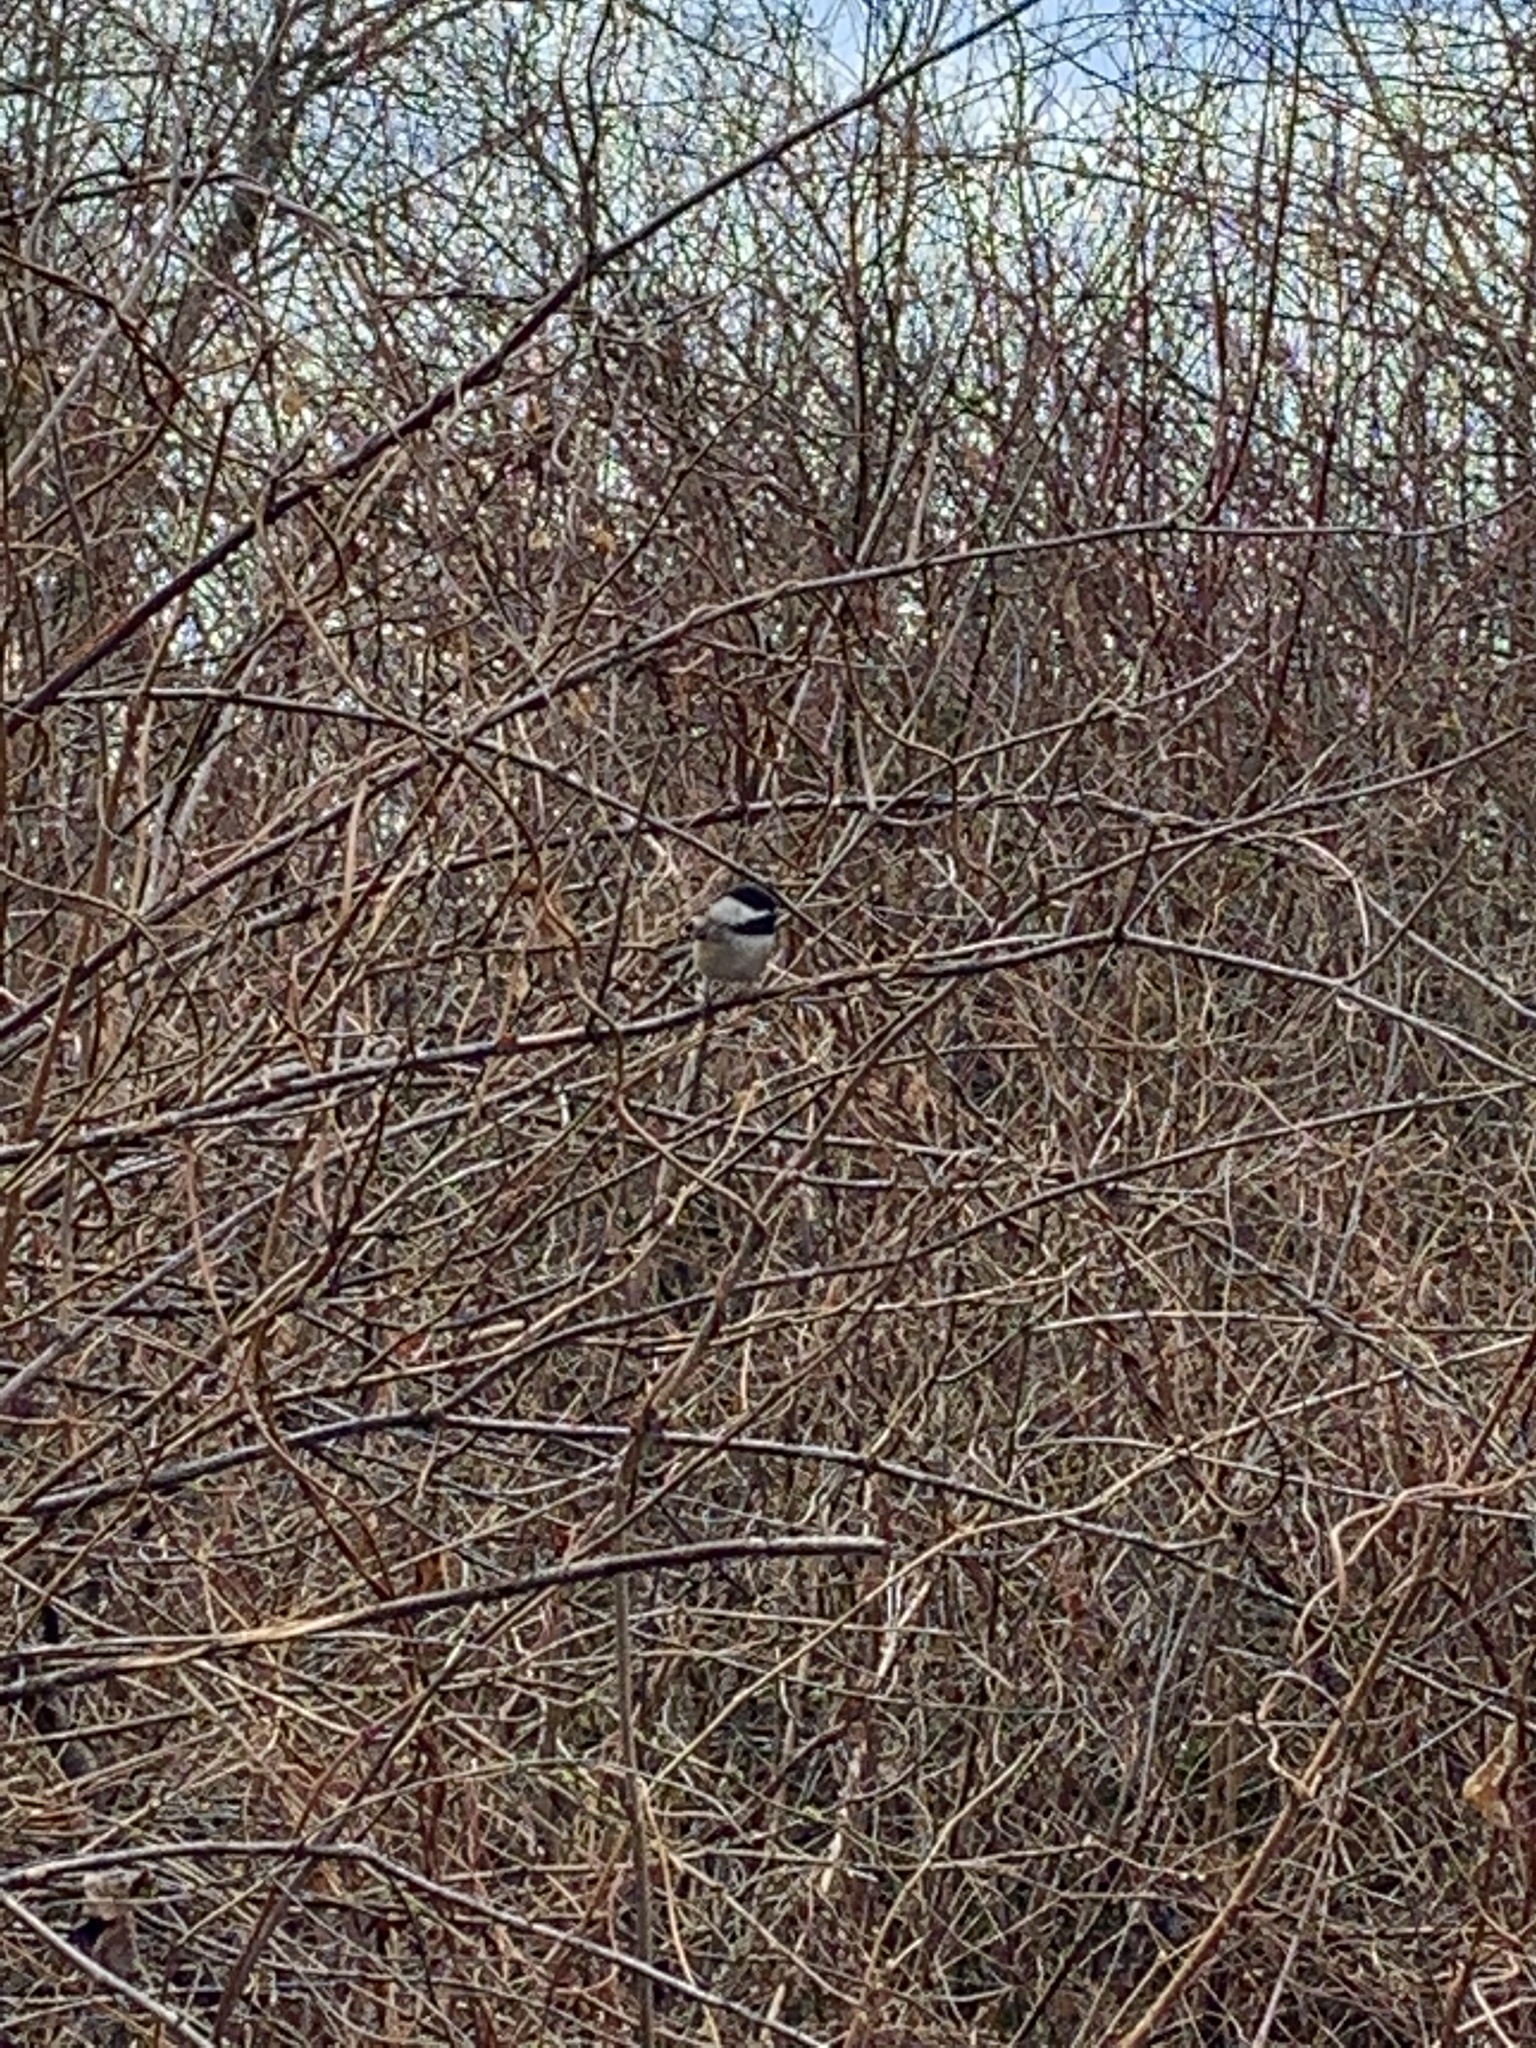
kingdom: Animalia
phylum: Chordata
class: Aves
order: Passeriformes
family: Paridae
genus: Poecile
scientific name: Poecile atricapillus
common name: Black-capped chickadee
